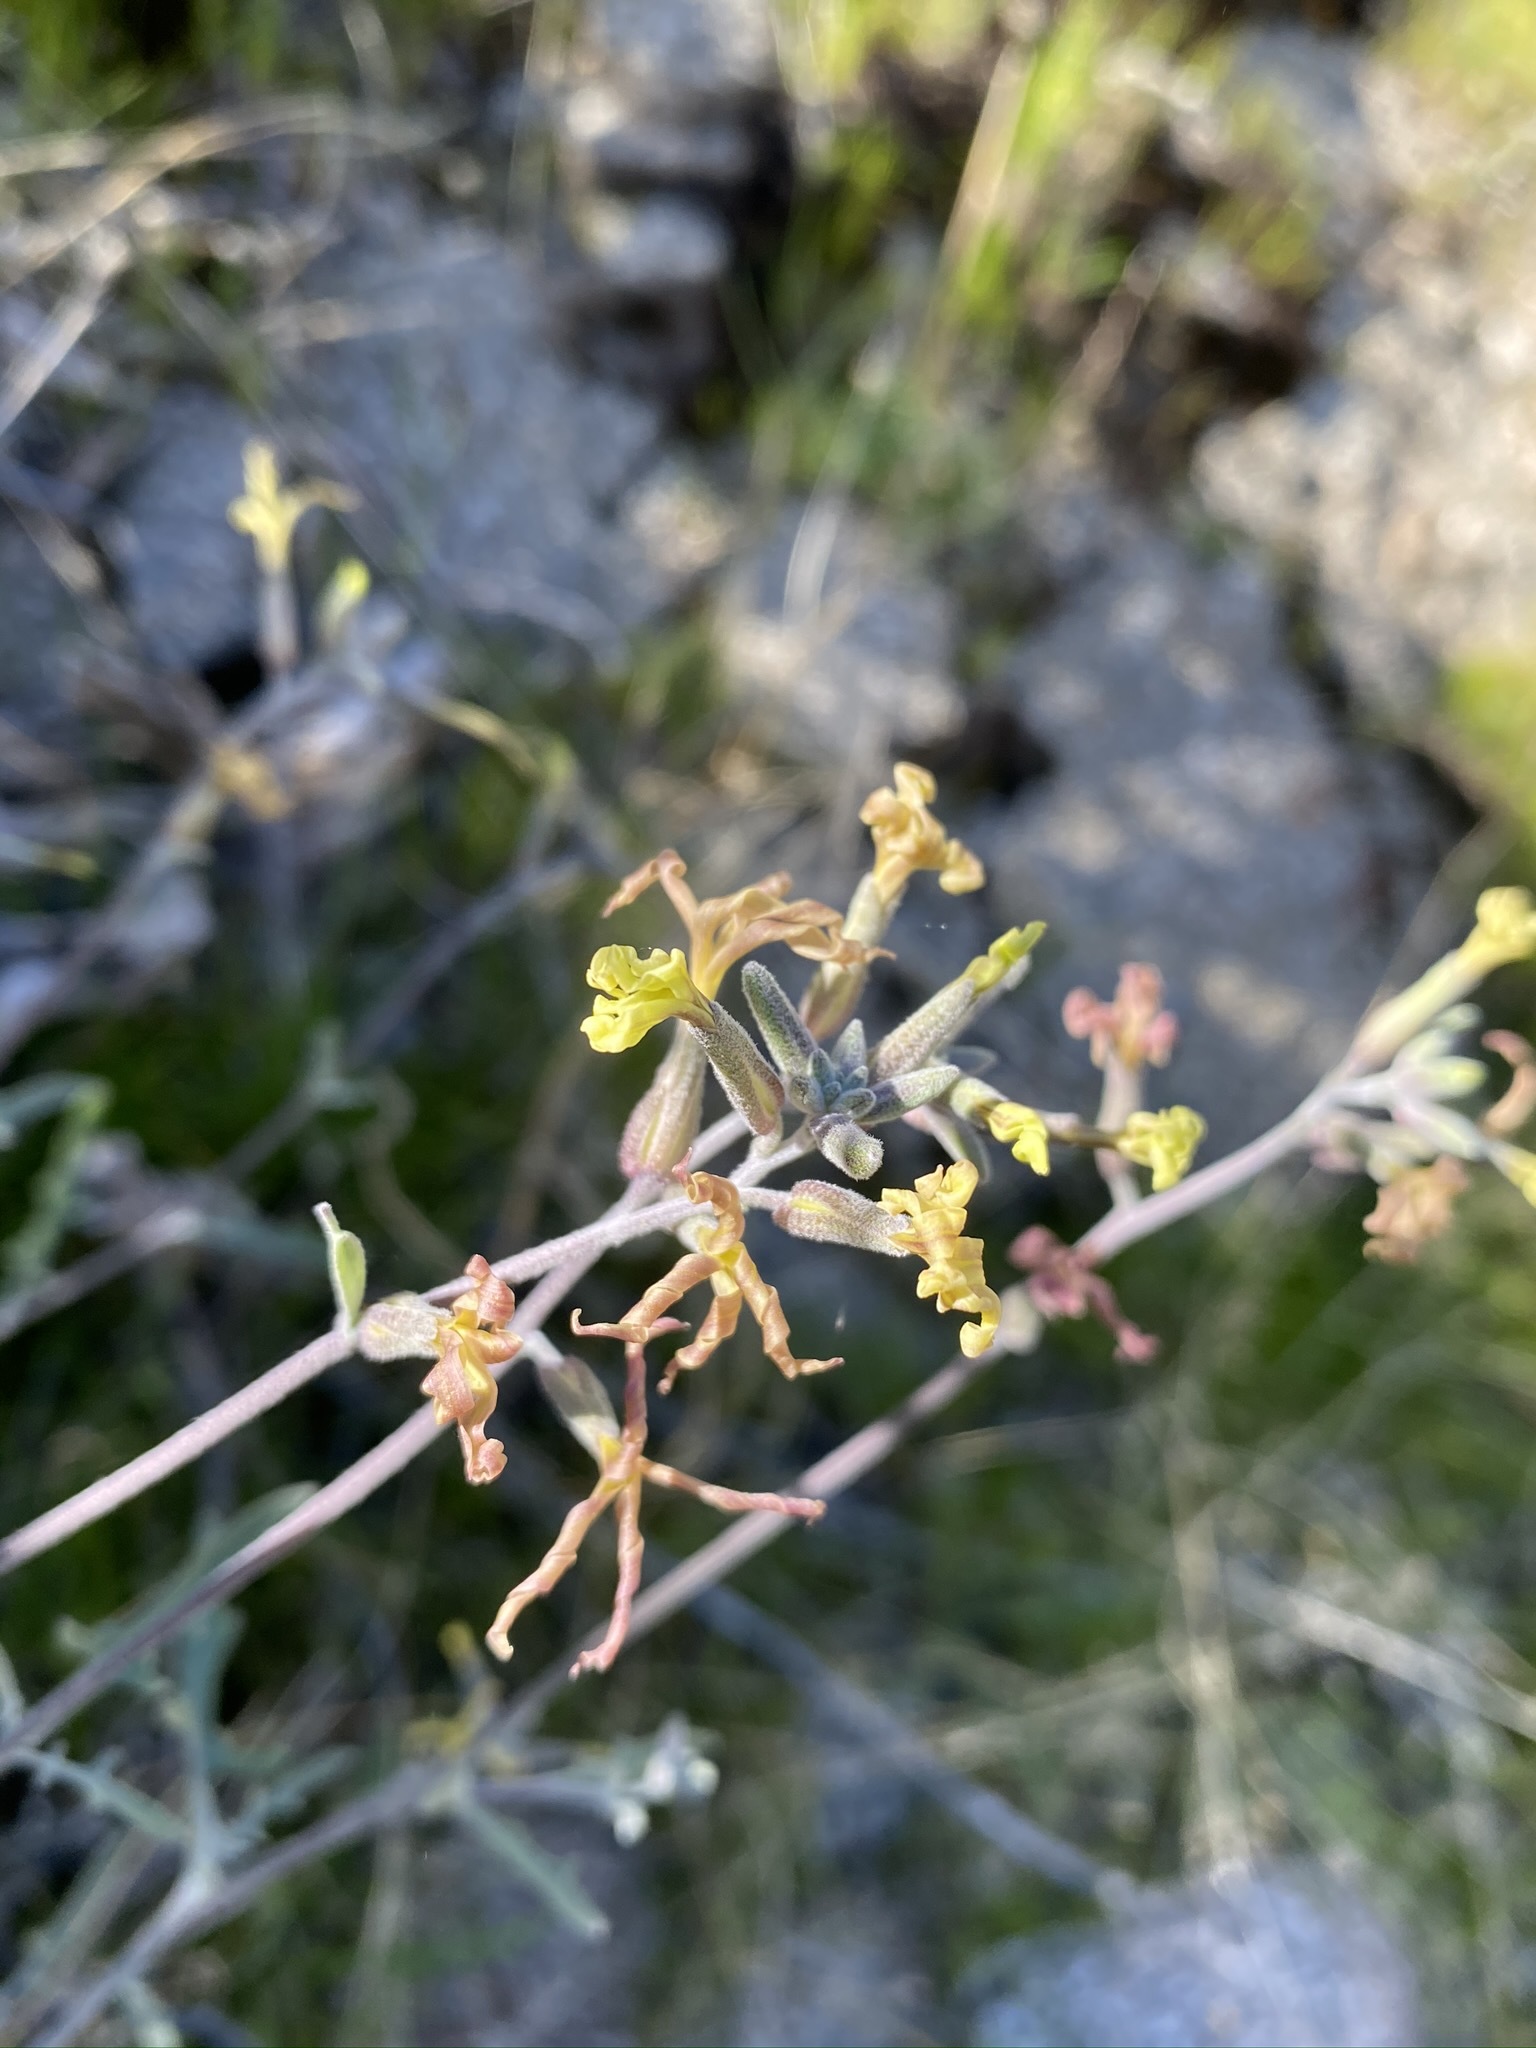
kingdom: Plantae
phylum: Tracheophyta
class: Magnoliopsida
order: Brassicales
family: Brassicaceae
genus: Lyrocarpa
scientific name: Lyrocarpa coulteri
